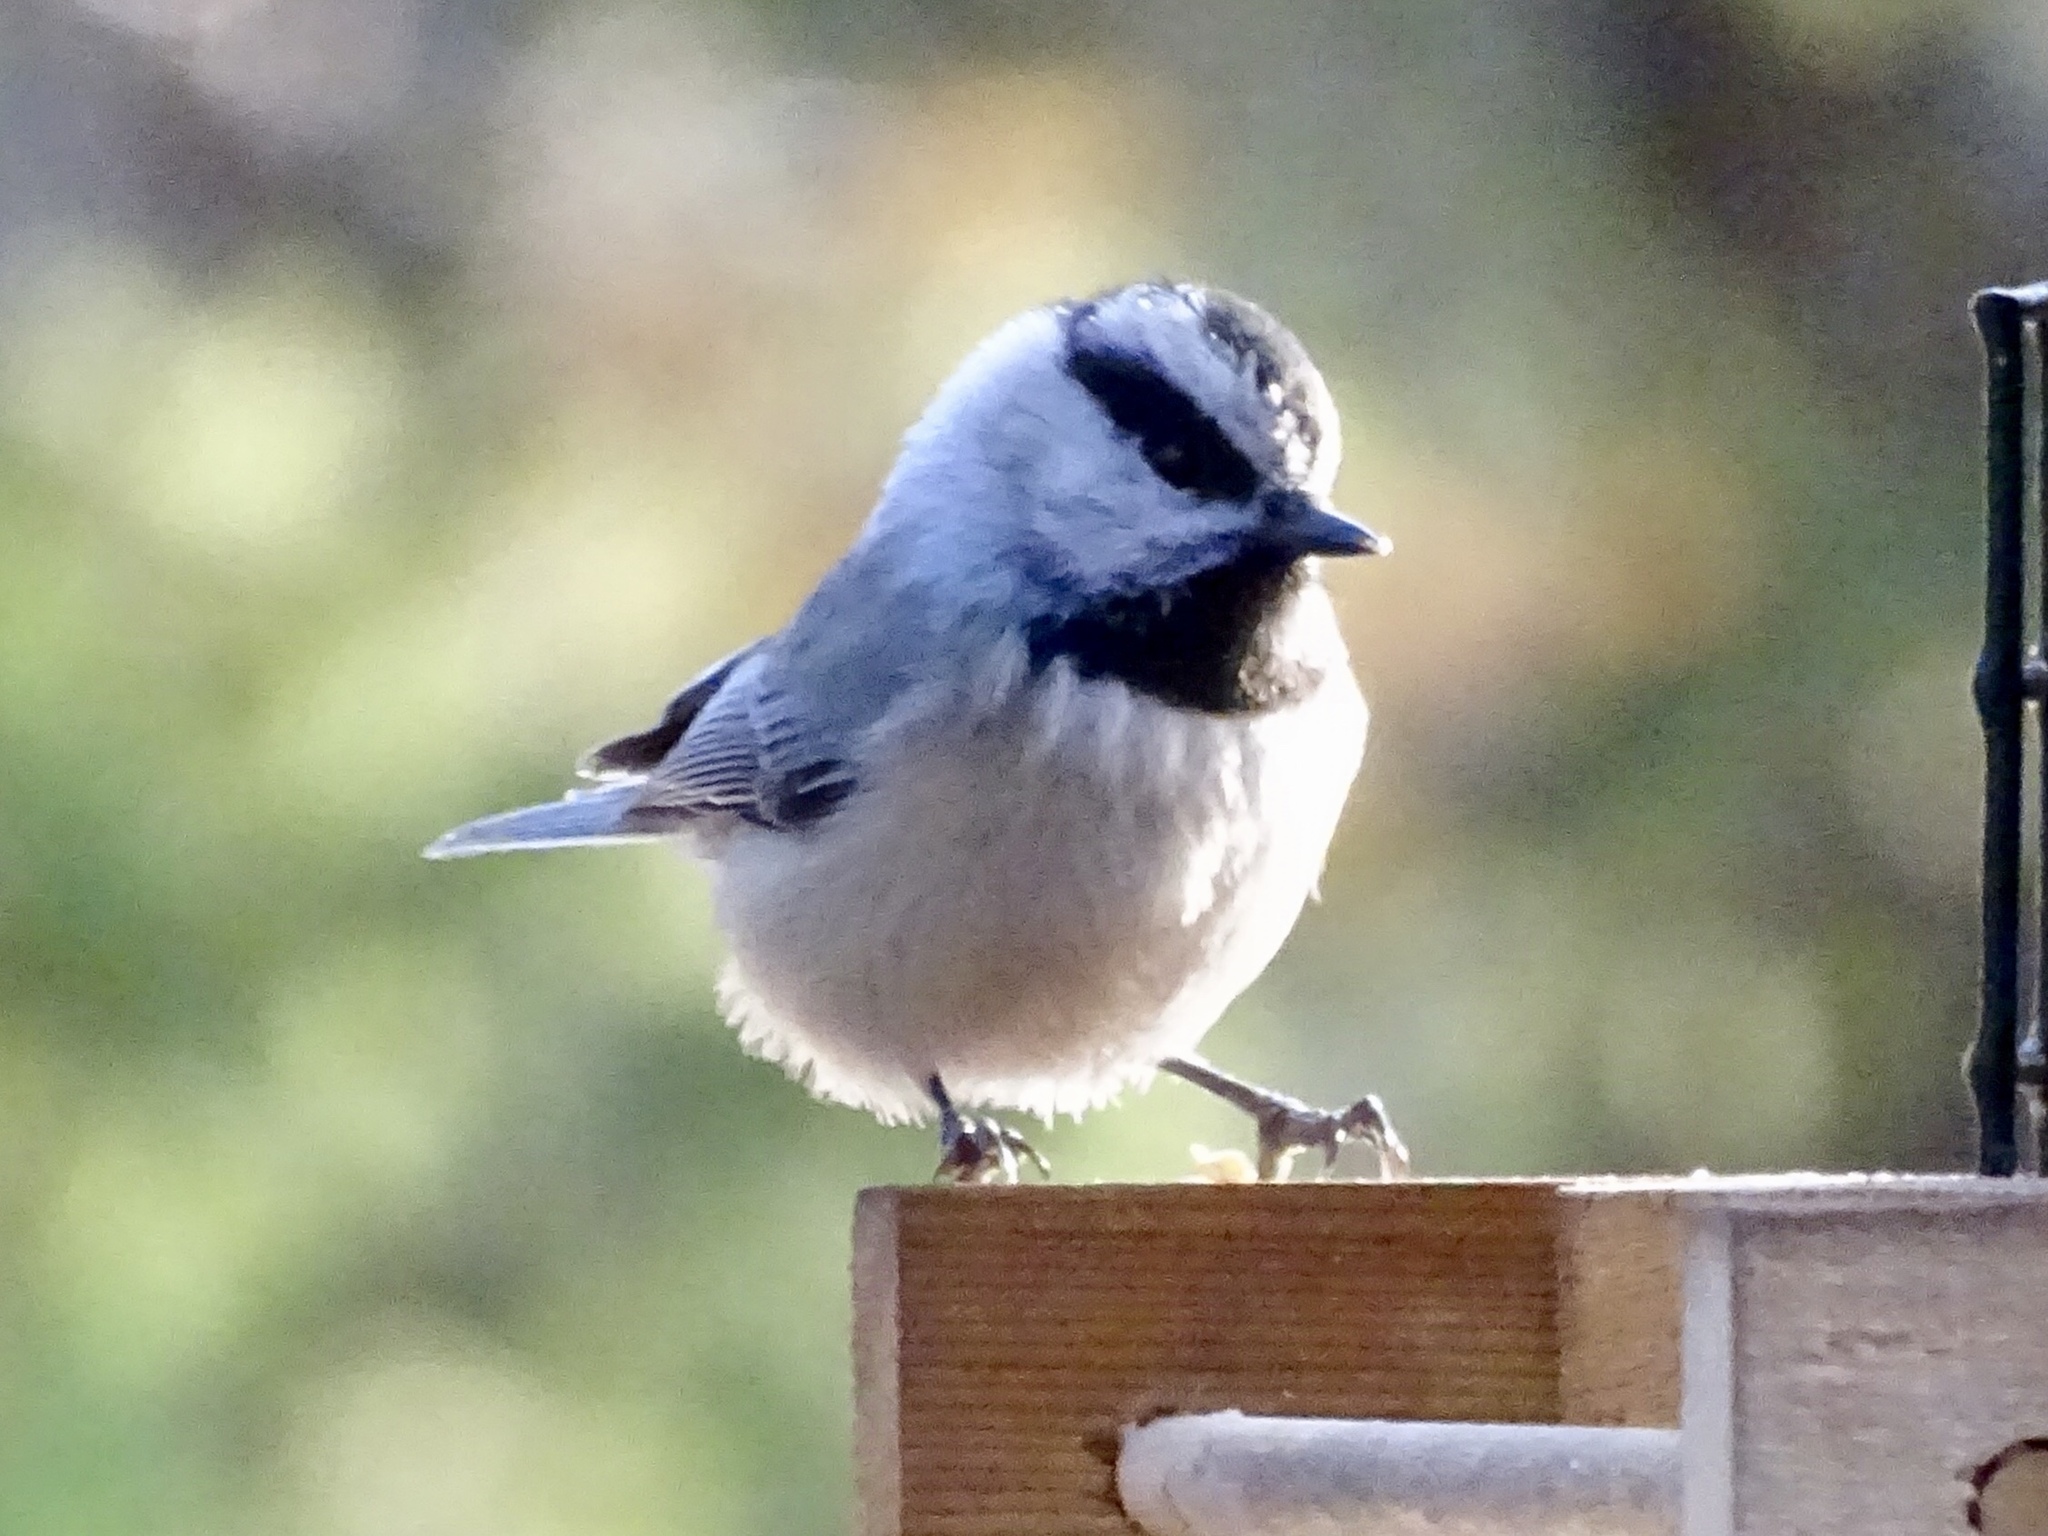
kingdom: Animalia
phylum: Chordata
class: Aves
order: Passeriformes
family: Paridae
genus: Poecile
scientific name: Poecile gambeli
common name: Mountain chickadee
